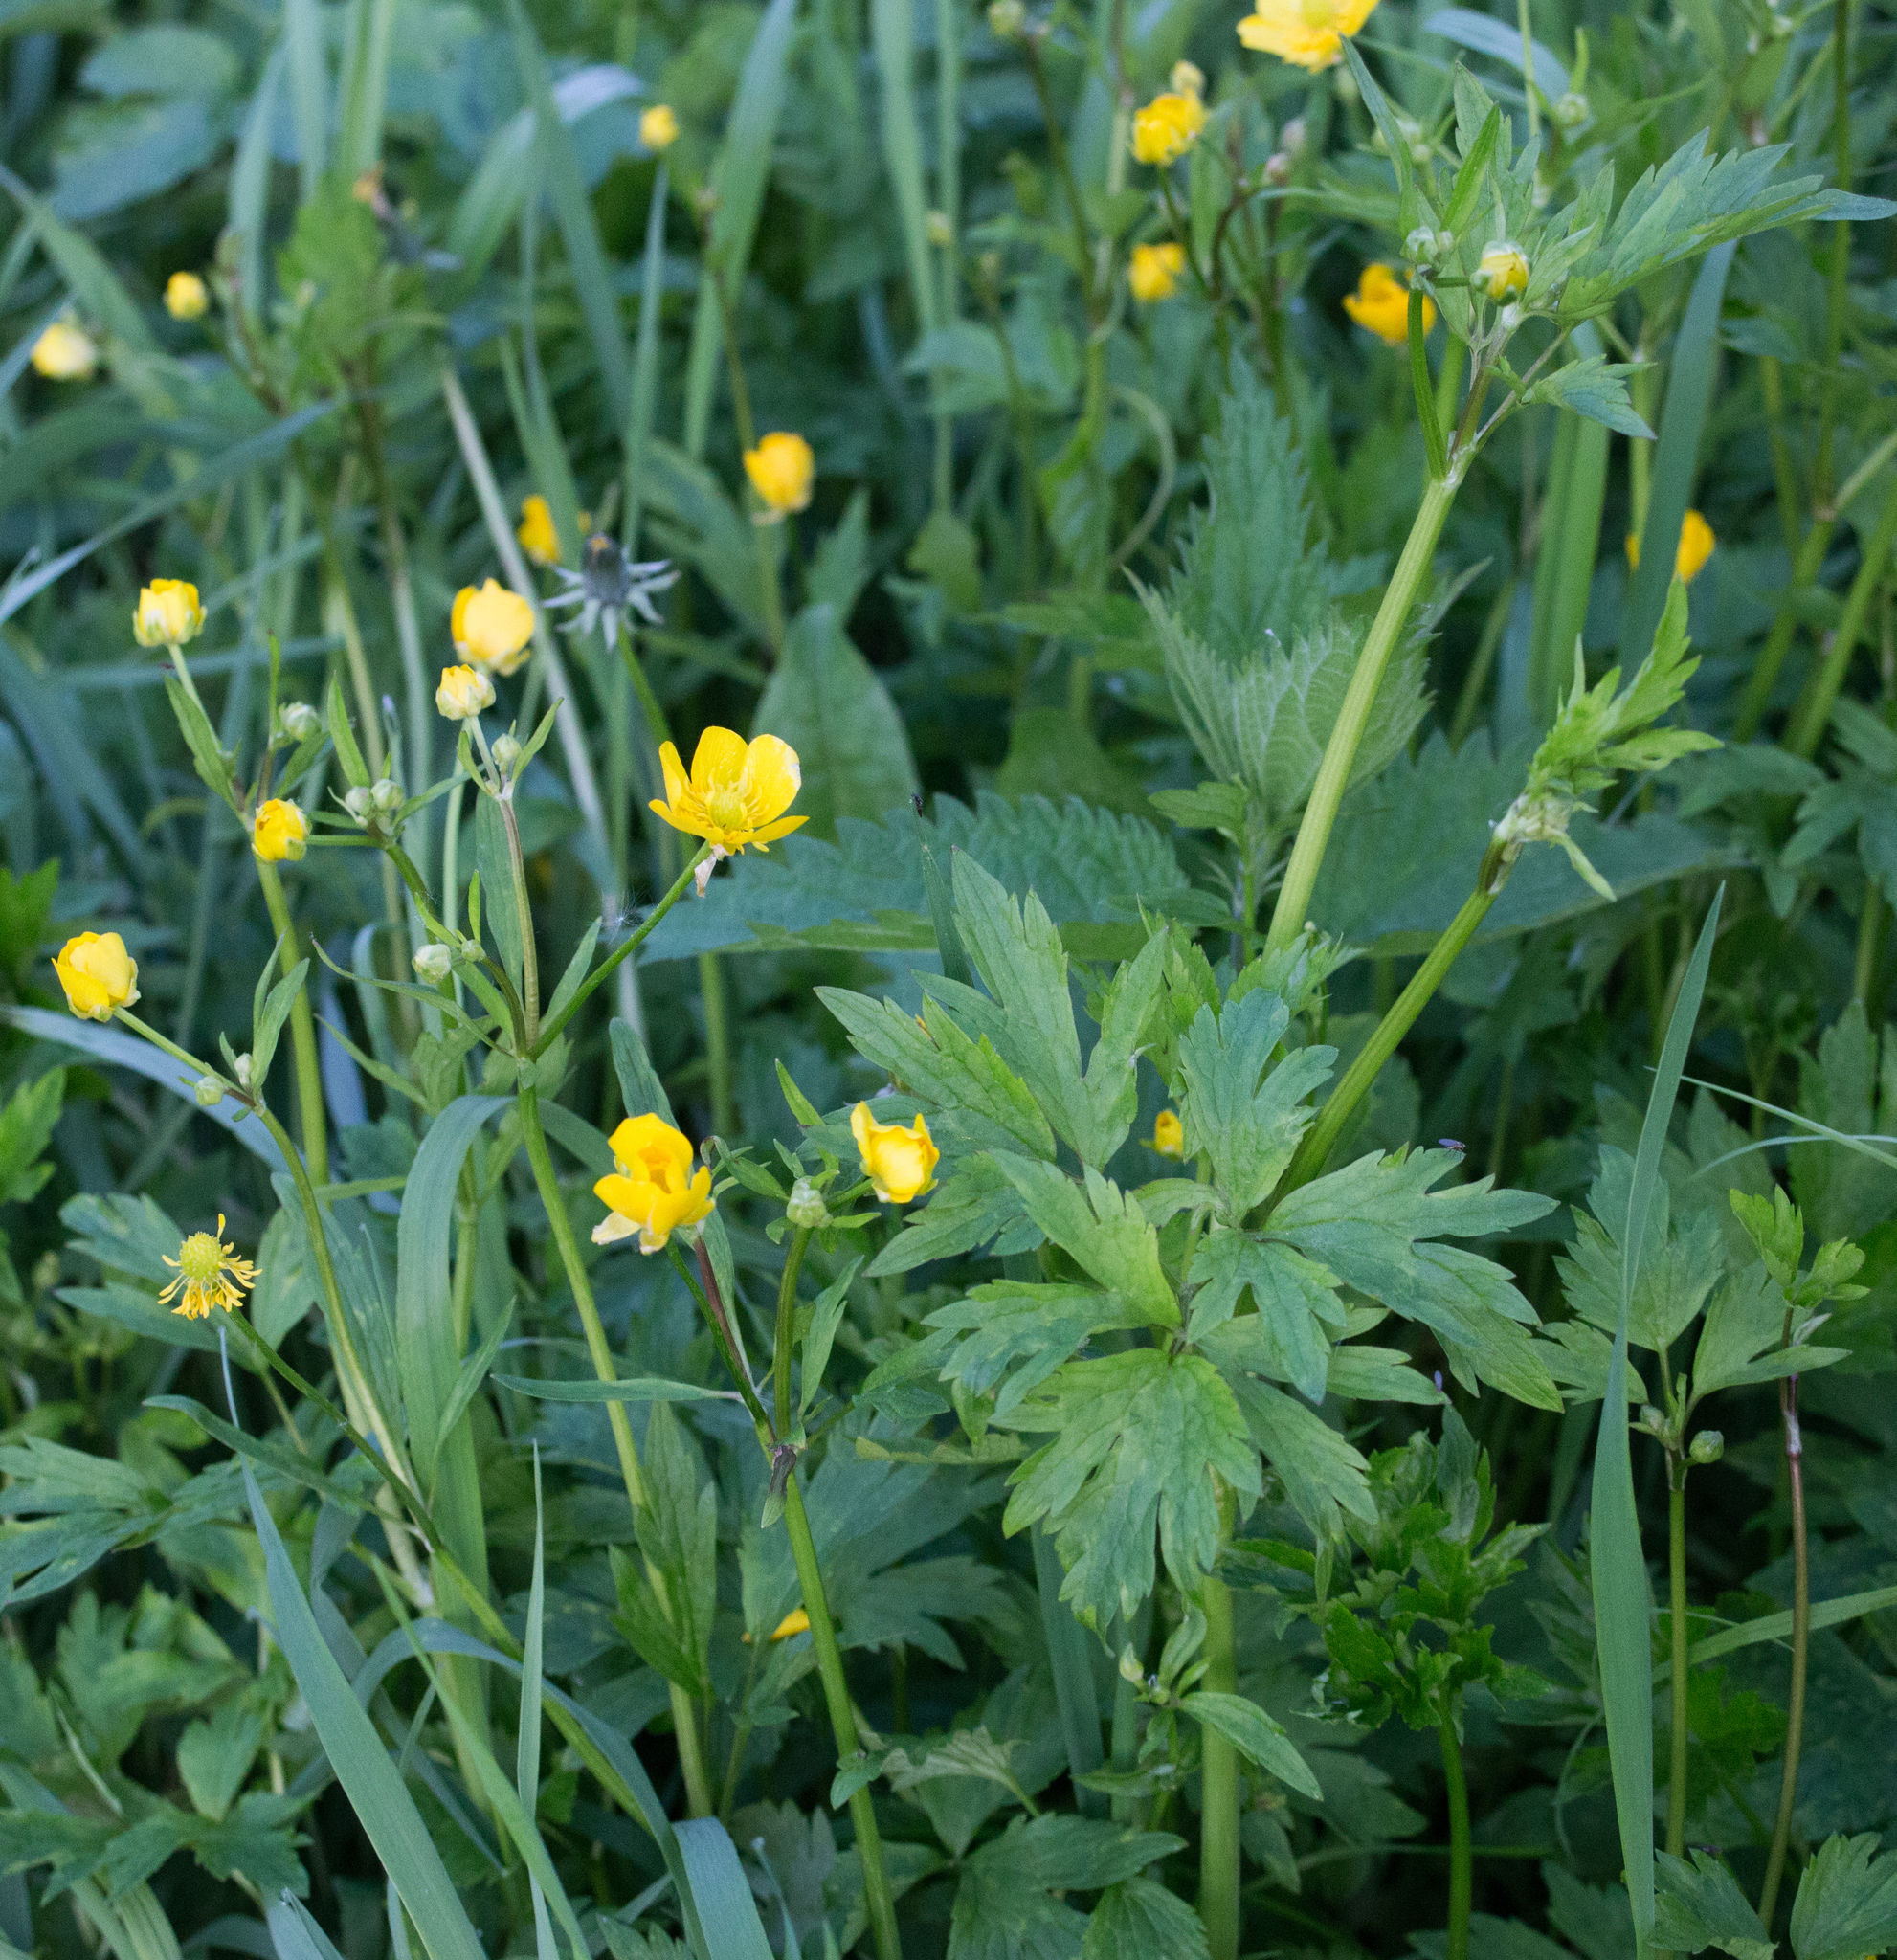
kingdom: Plantae
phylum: Tracheophyta
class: Magnoliopsida
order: Ranunculales
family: Ranunculaceae
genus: Ranunculus
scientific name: Ranunculus repens
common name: Creeping buttercup
